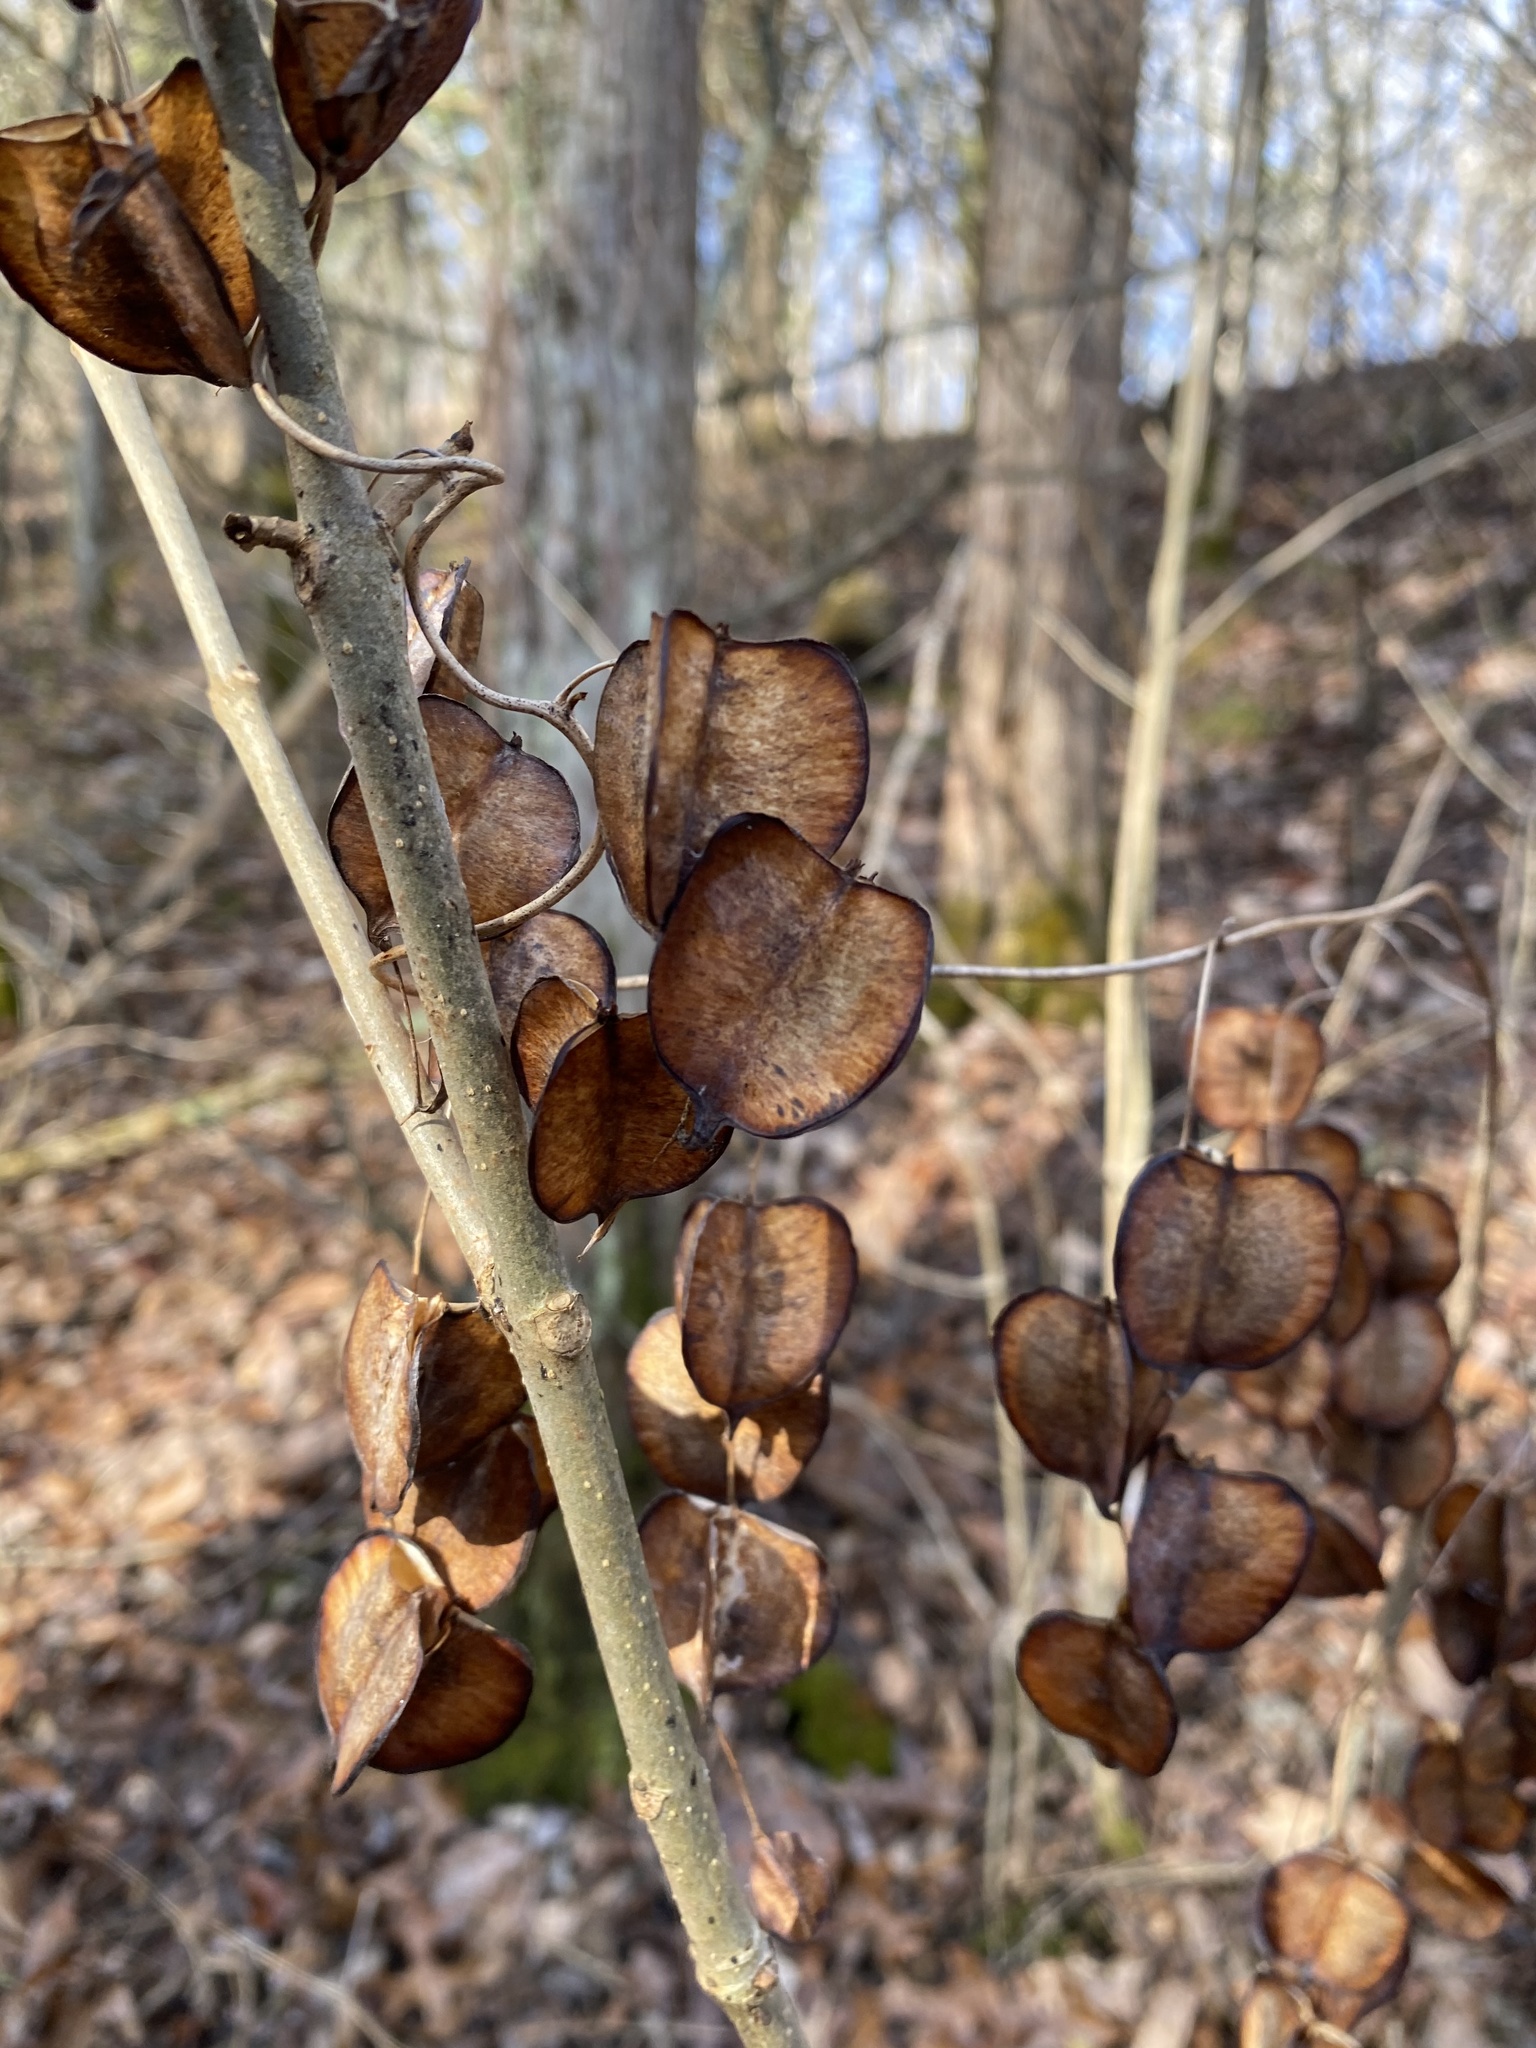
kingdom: Plantae
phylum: Tracheophyta
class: Liliopsida
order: Dioscoreales
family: Dioscoreaceae
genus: Dioscorea
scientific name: Dioscorea villosa
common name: Wild yam
